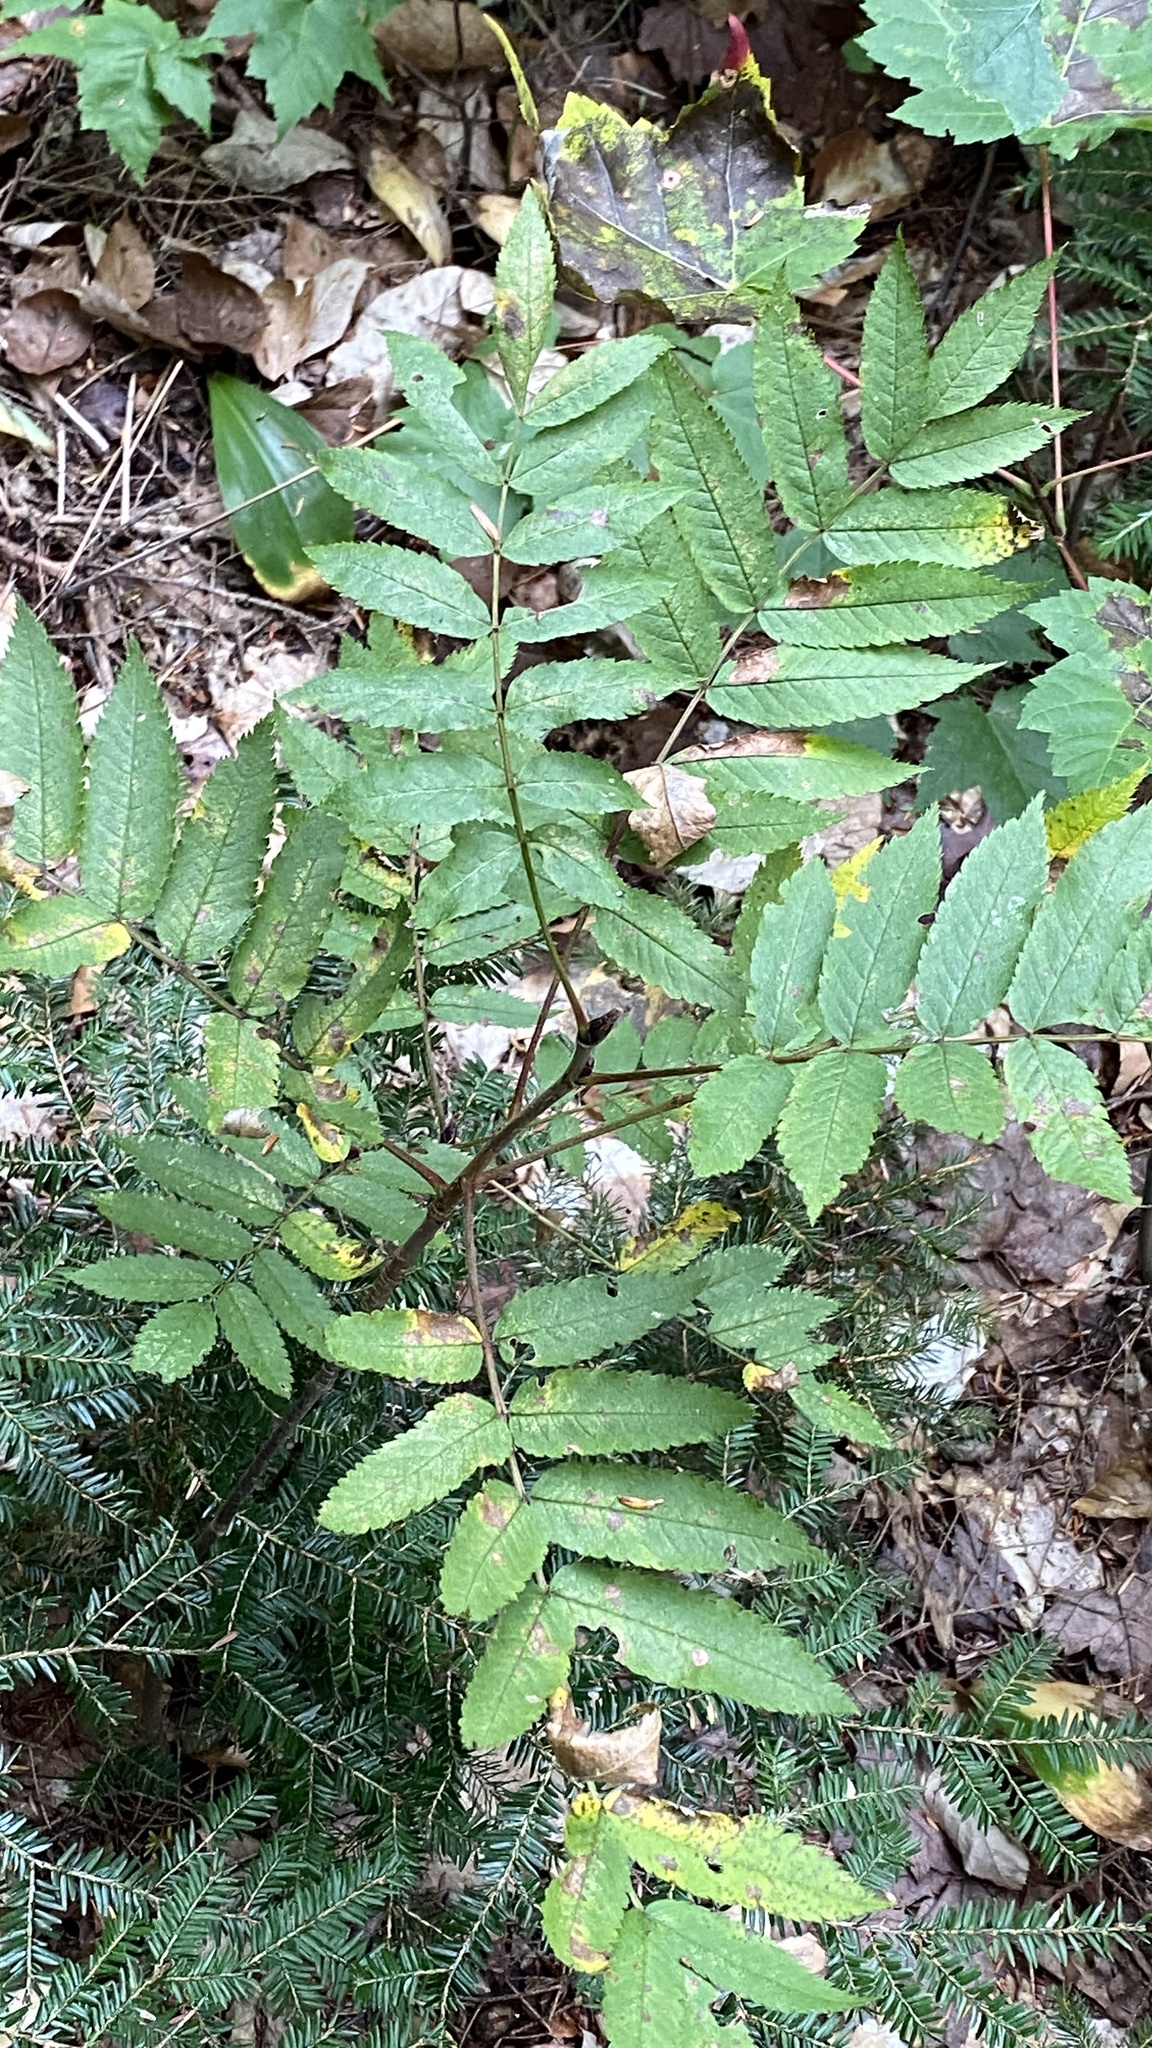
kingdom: Plantae
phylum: Tracheophyta
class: Magnoliopsida
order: Rosales
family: Rosaceae
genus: Sorbus
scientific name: Sorbus americana
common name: American mountain-ash
